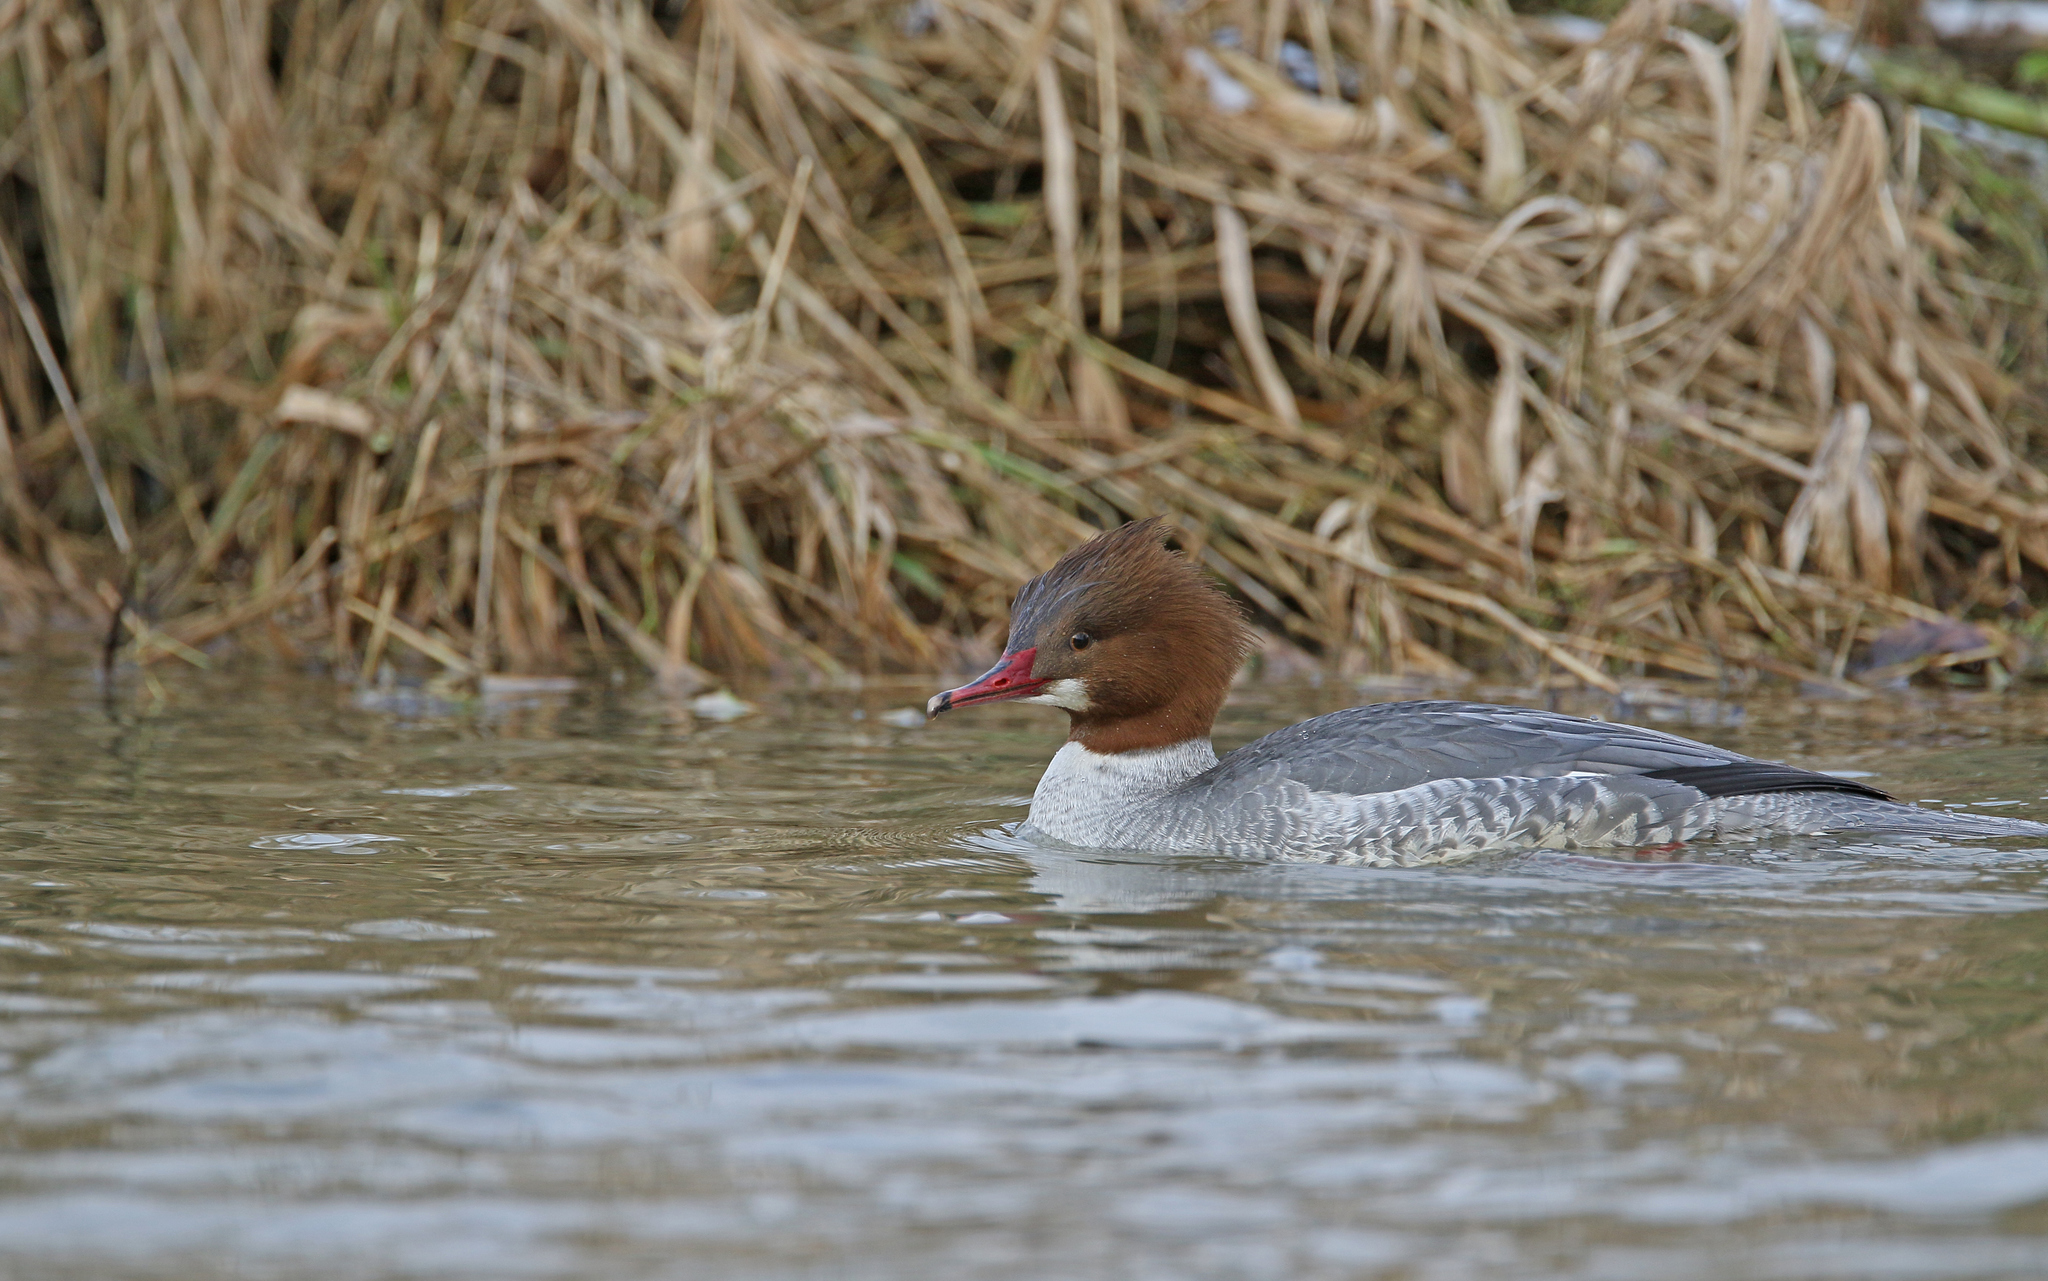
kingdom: Animalia
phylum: Chordata
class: Aves
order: Anseriformes
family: Anatidae
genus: Mergus
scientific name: Mergus merganser
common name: Common merganser
